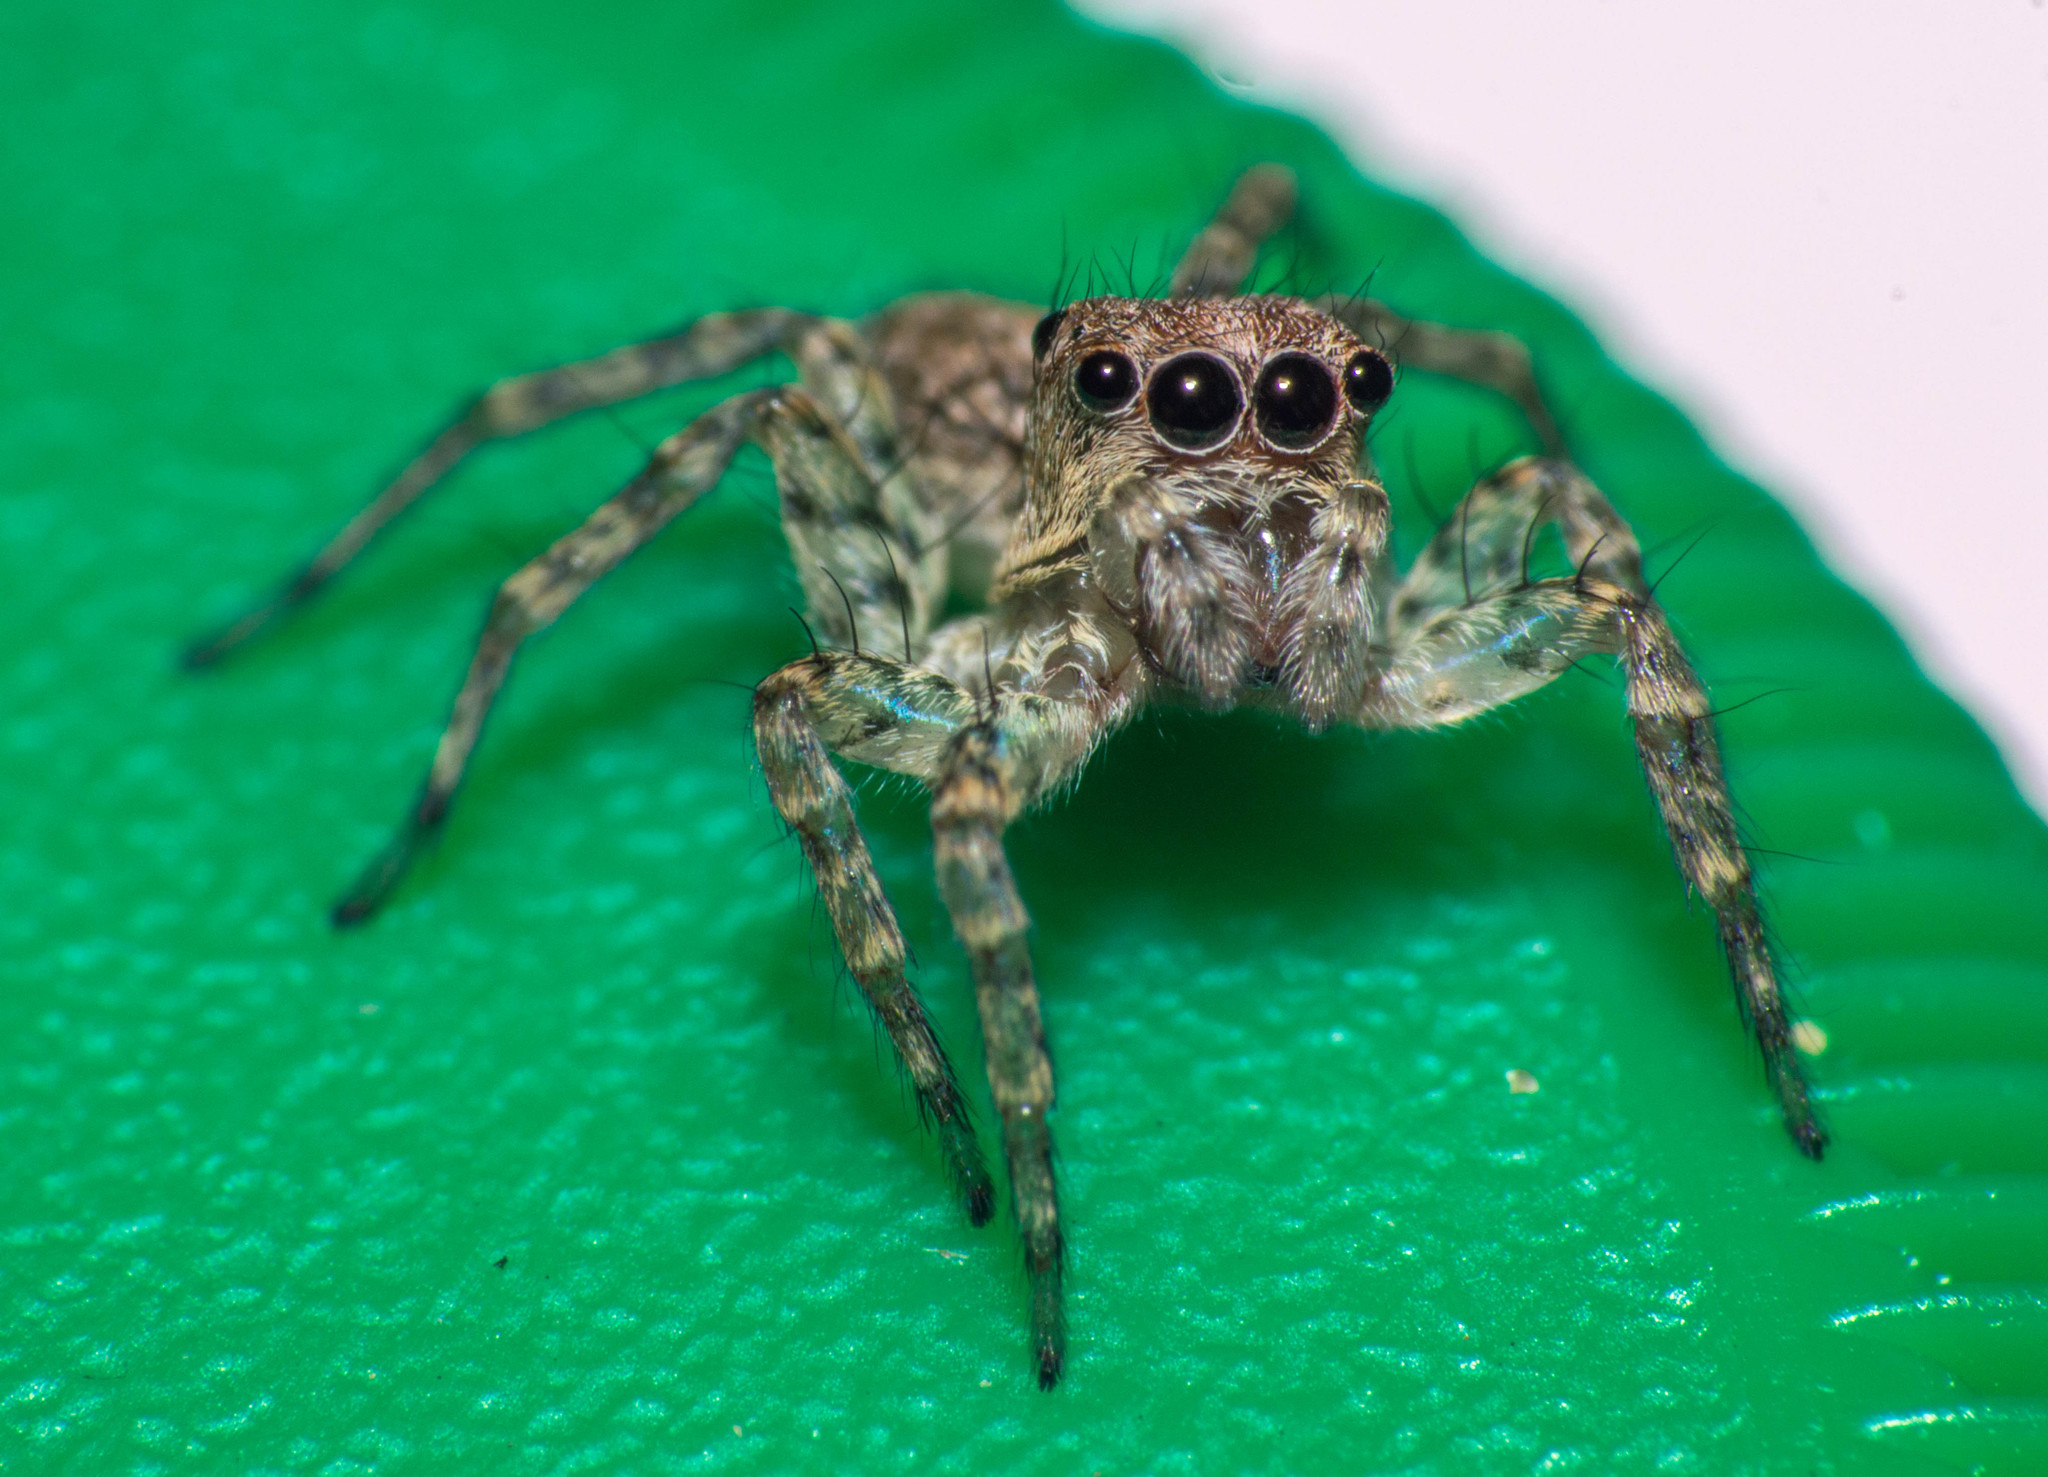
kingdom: Animalia
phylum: Arthropoda
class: Arachnida
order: Araneae
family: Salticidae
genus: Saitis
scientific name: Saitis variegatus
